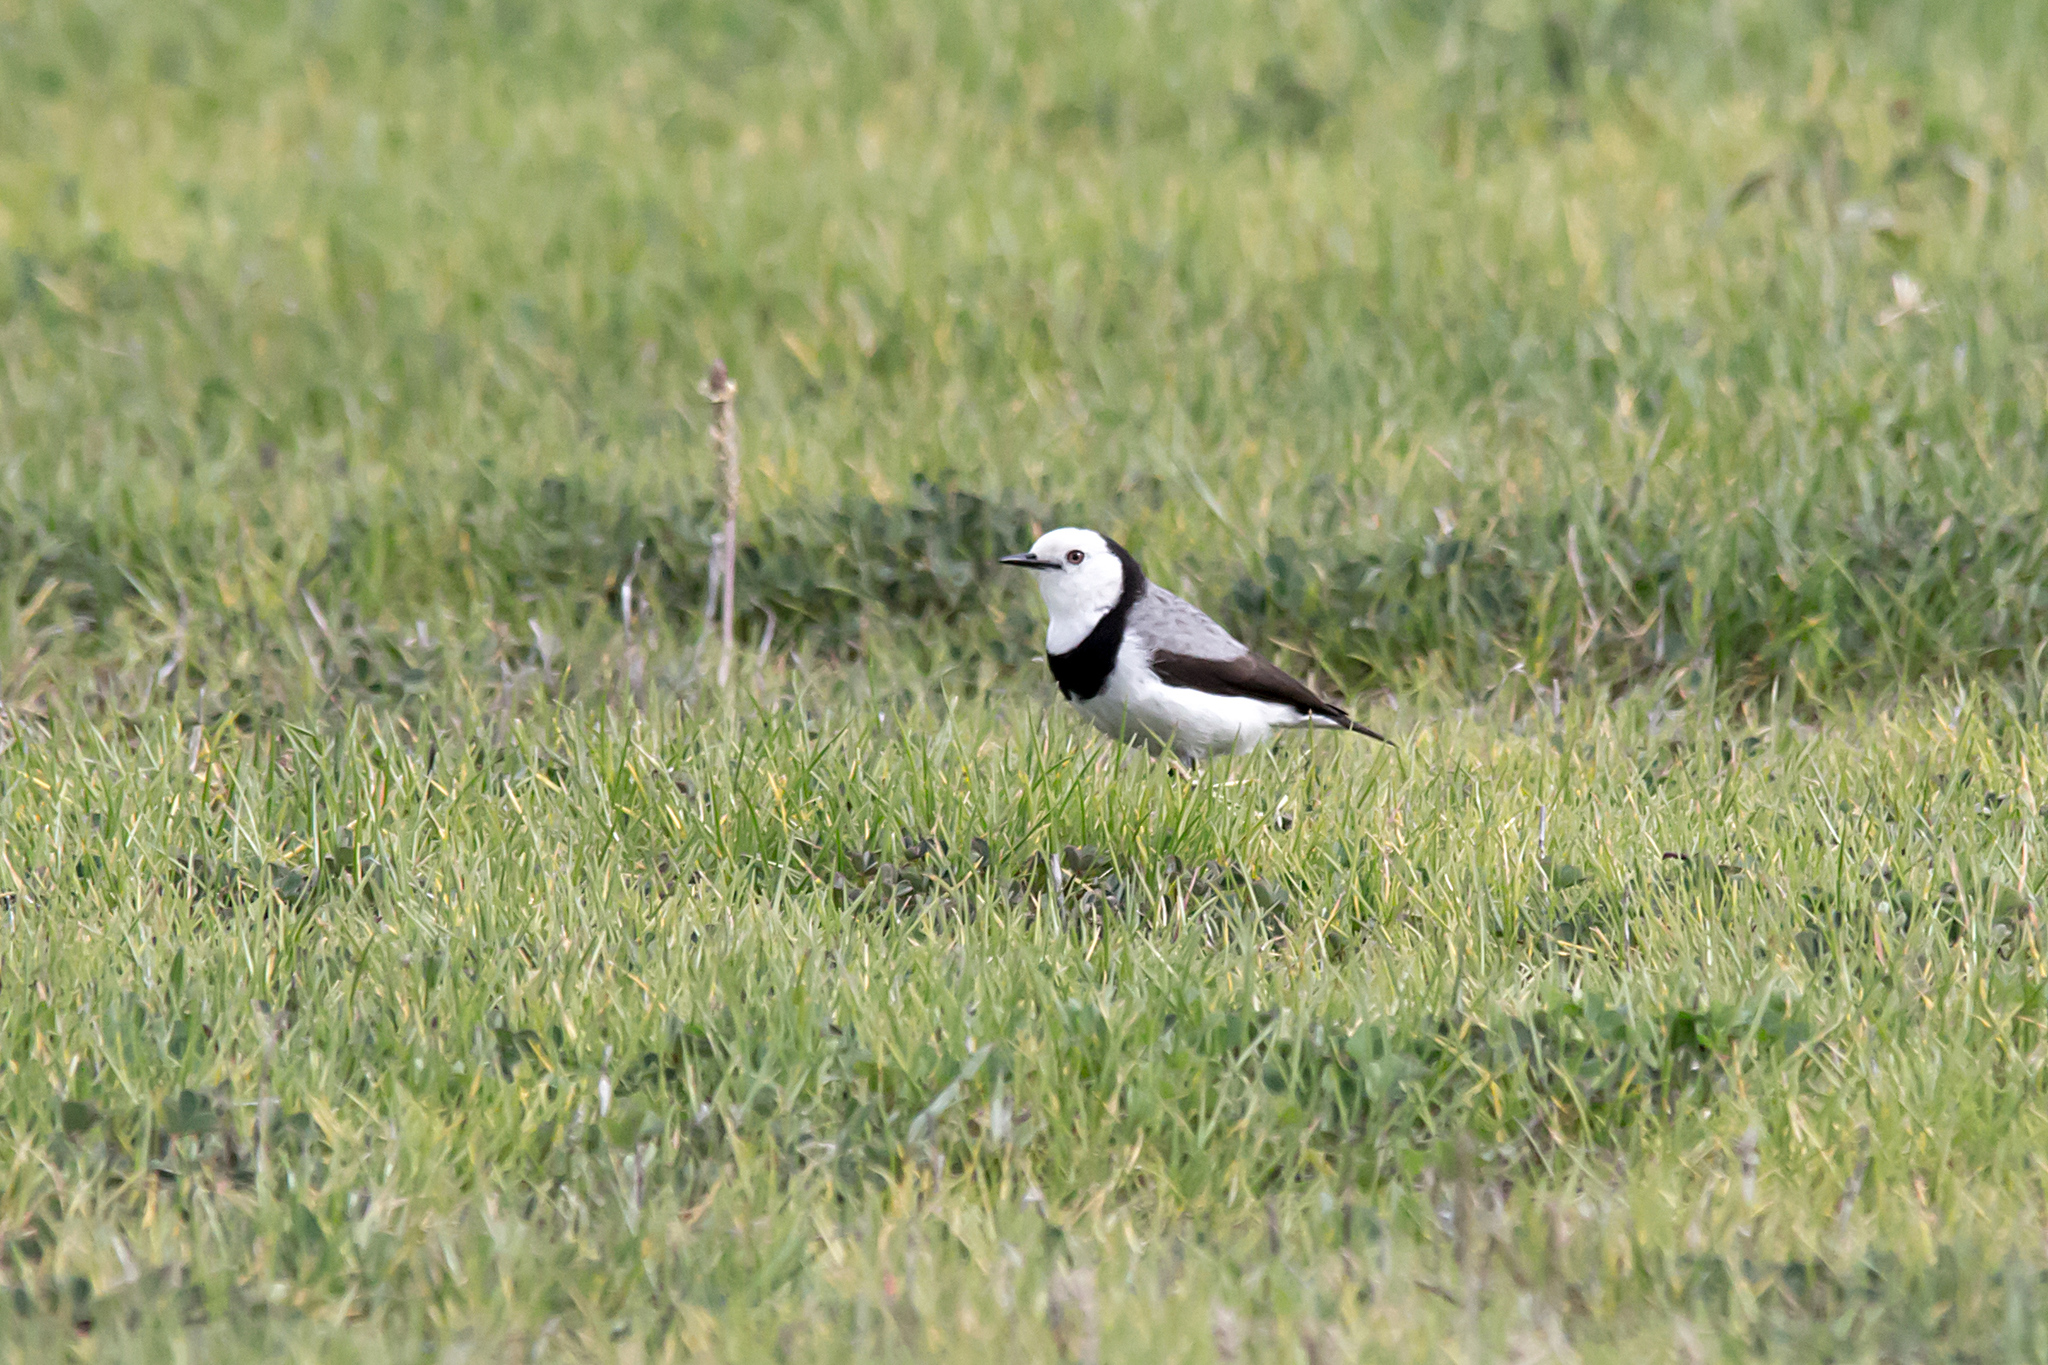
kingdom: Animalia
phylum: Chordata
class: Aves
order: Passeriformes
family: Meliphagidae
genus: Epthianura
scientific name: Epthianura albifrons
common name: White-fronted chat
